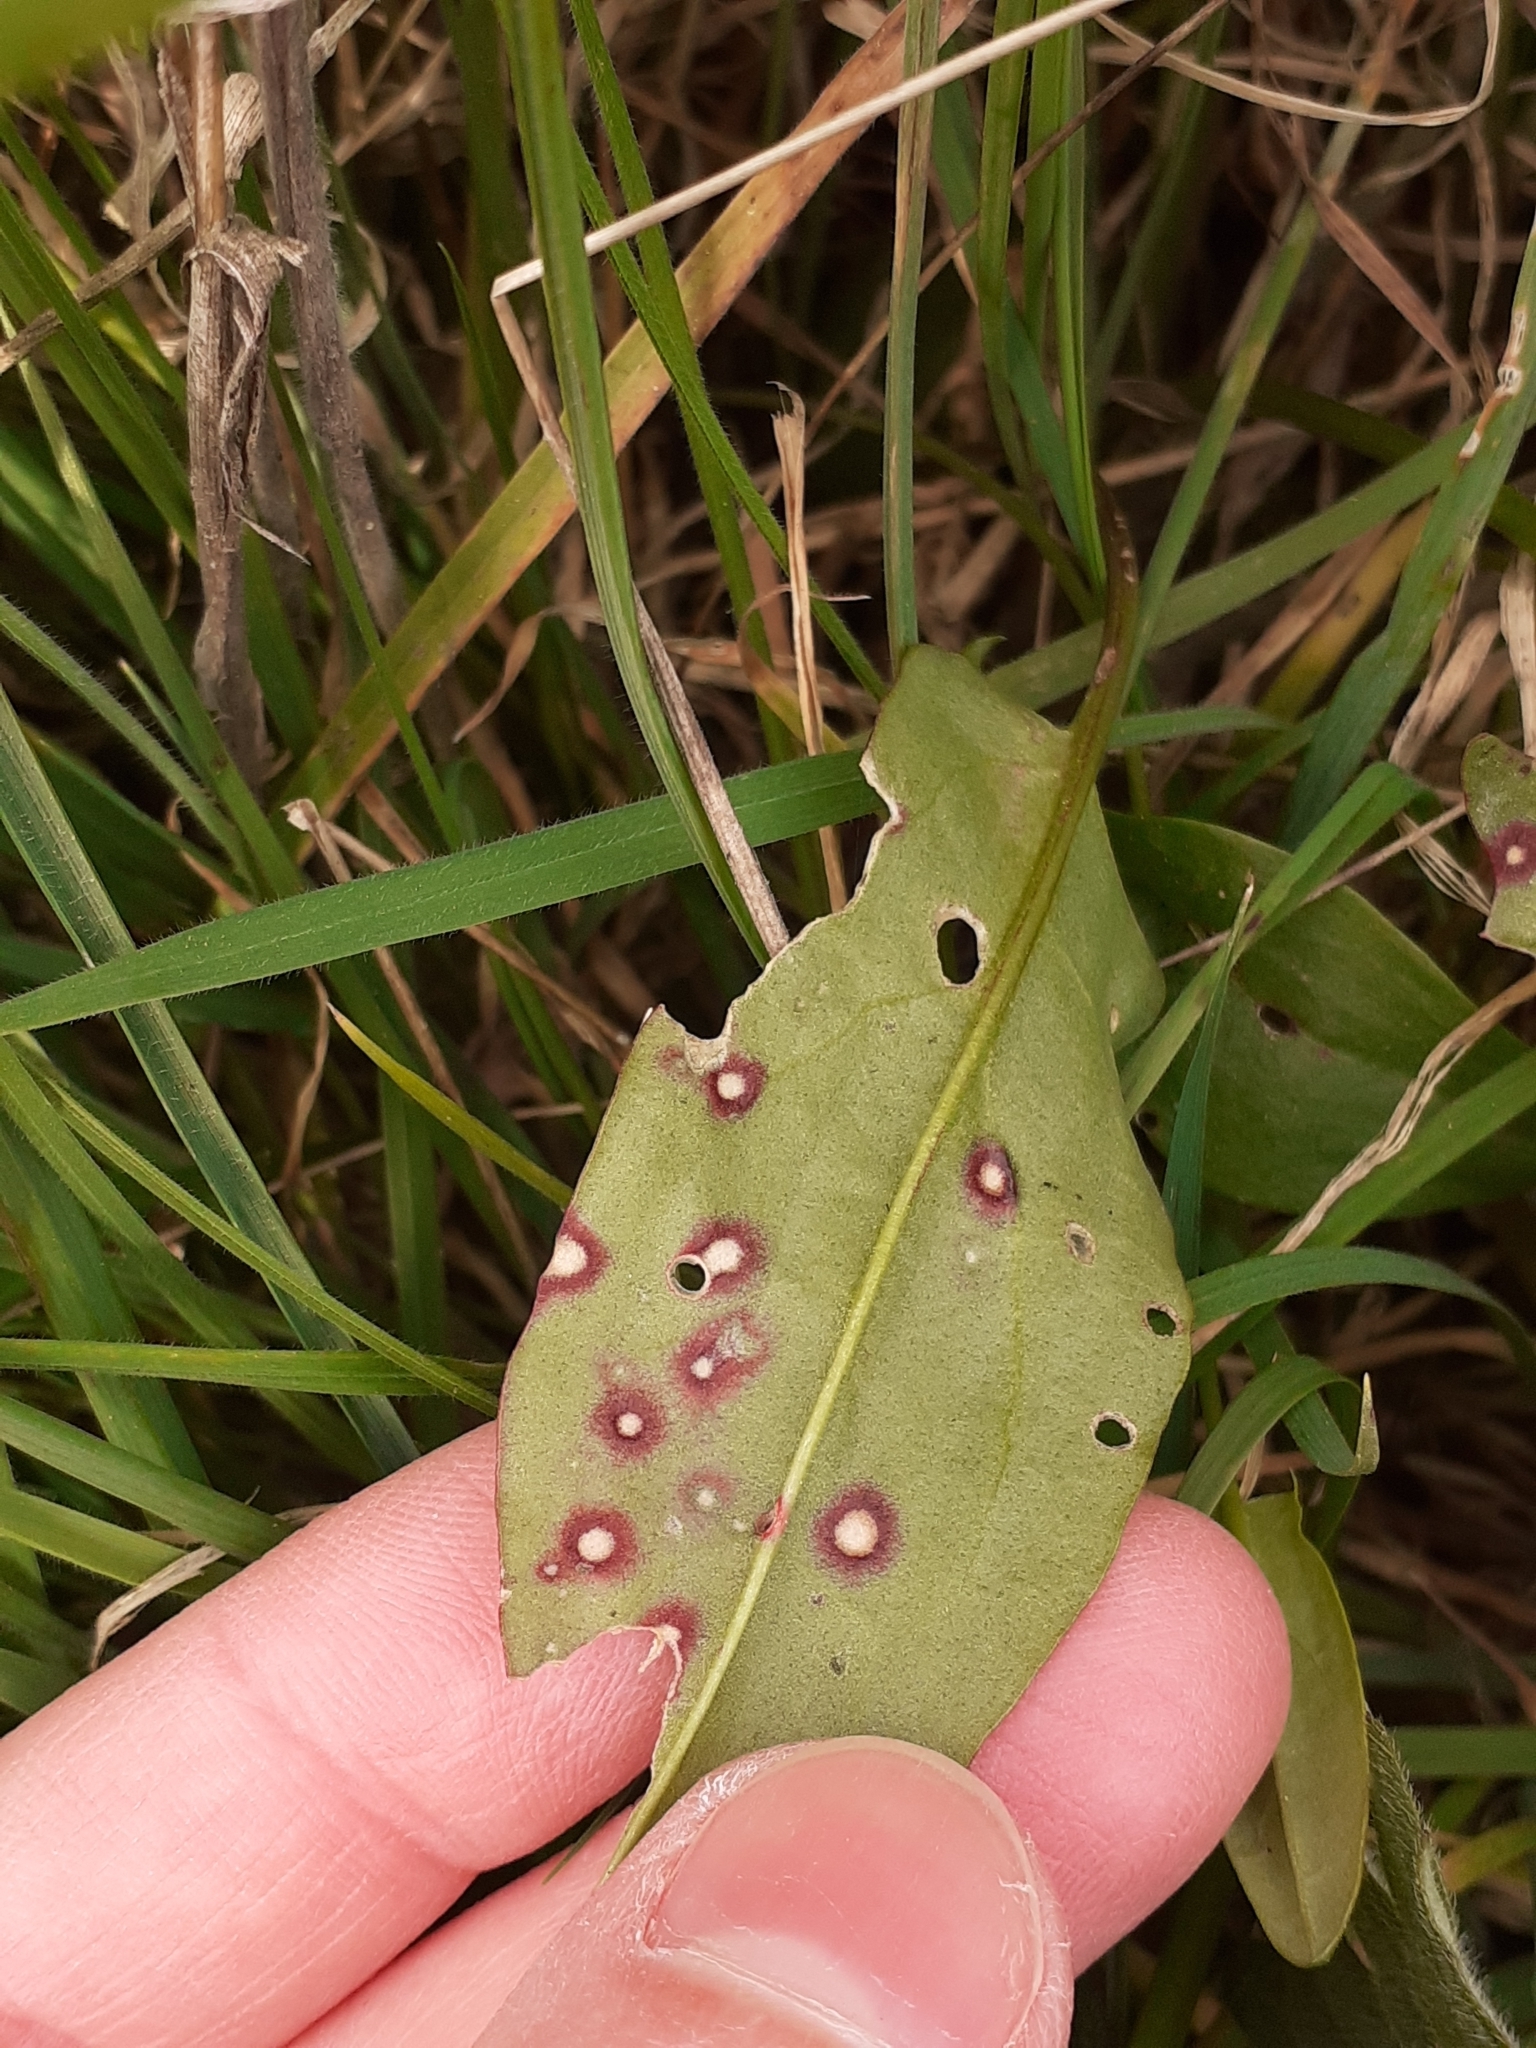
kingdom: Fungi
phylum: Ascomycota
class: Dothideomycetes
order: Mycosphaerellales
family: Mycosphaerellaceae
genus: Ramularia
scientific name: Ramularia rubella
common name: Red dock spot
